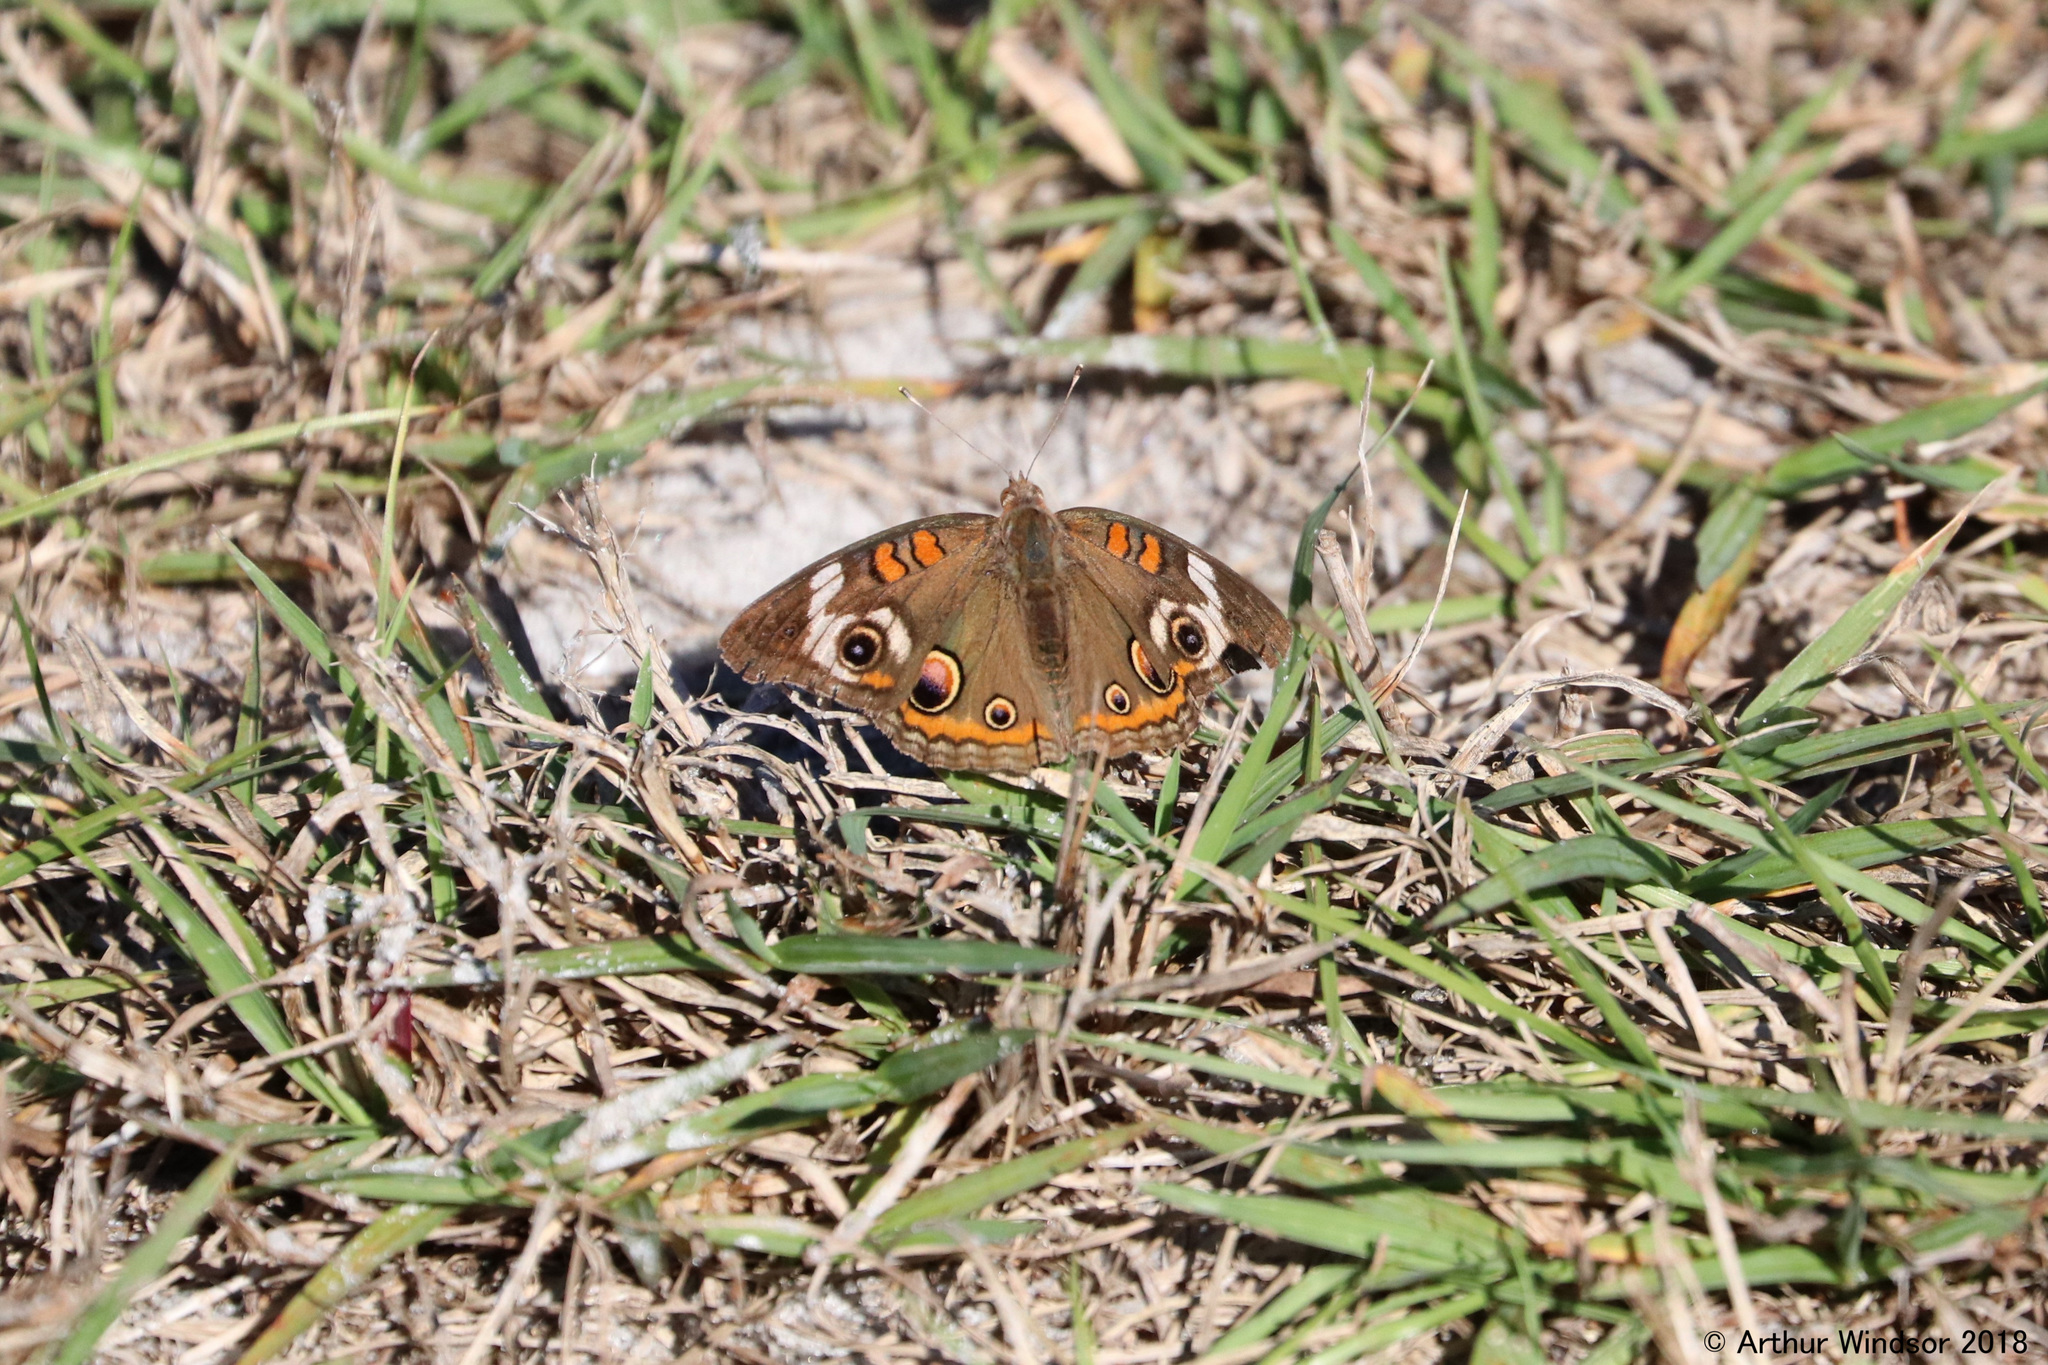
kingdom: Animalia
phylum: Arthropoda
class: Insecta
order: Lepidoptera
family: Nymphalidae
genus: Junonia
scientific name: Junonia coenia
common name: Common buckeye
